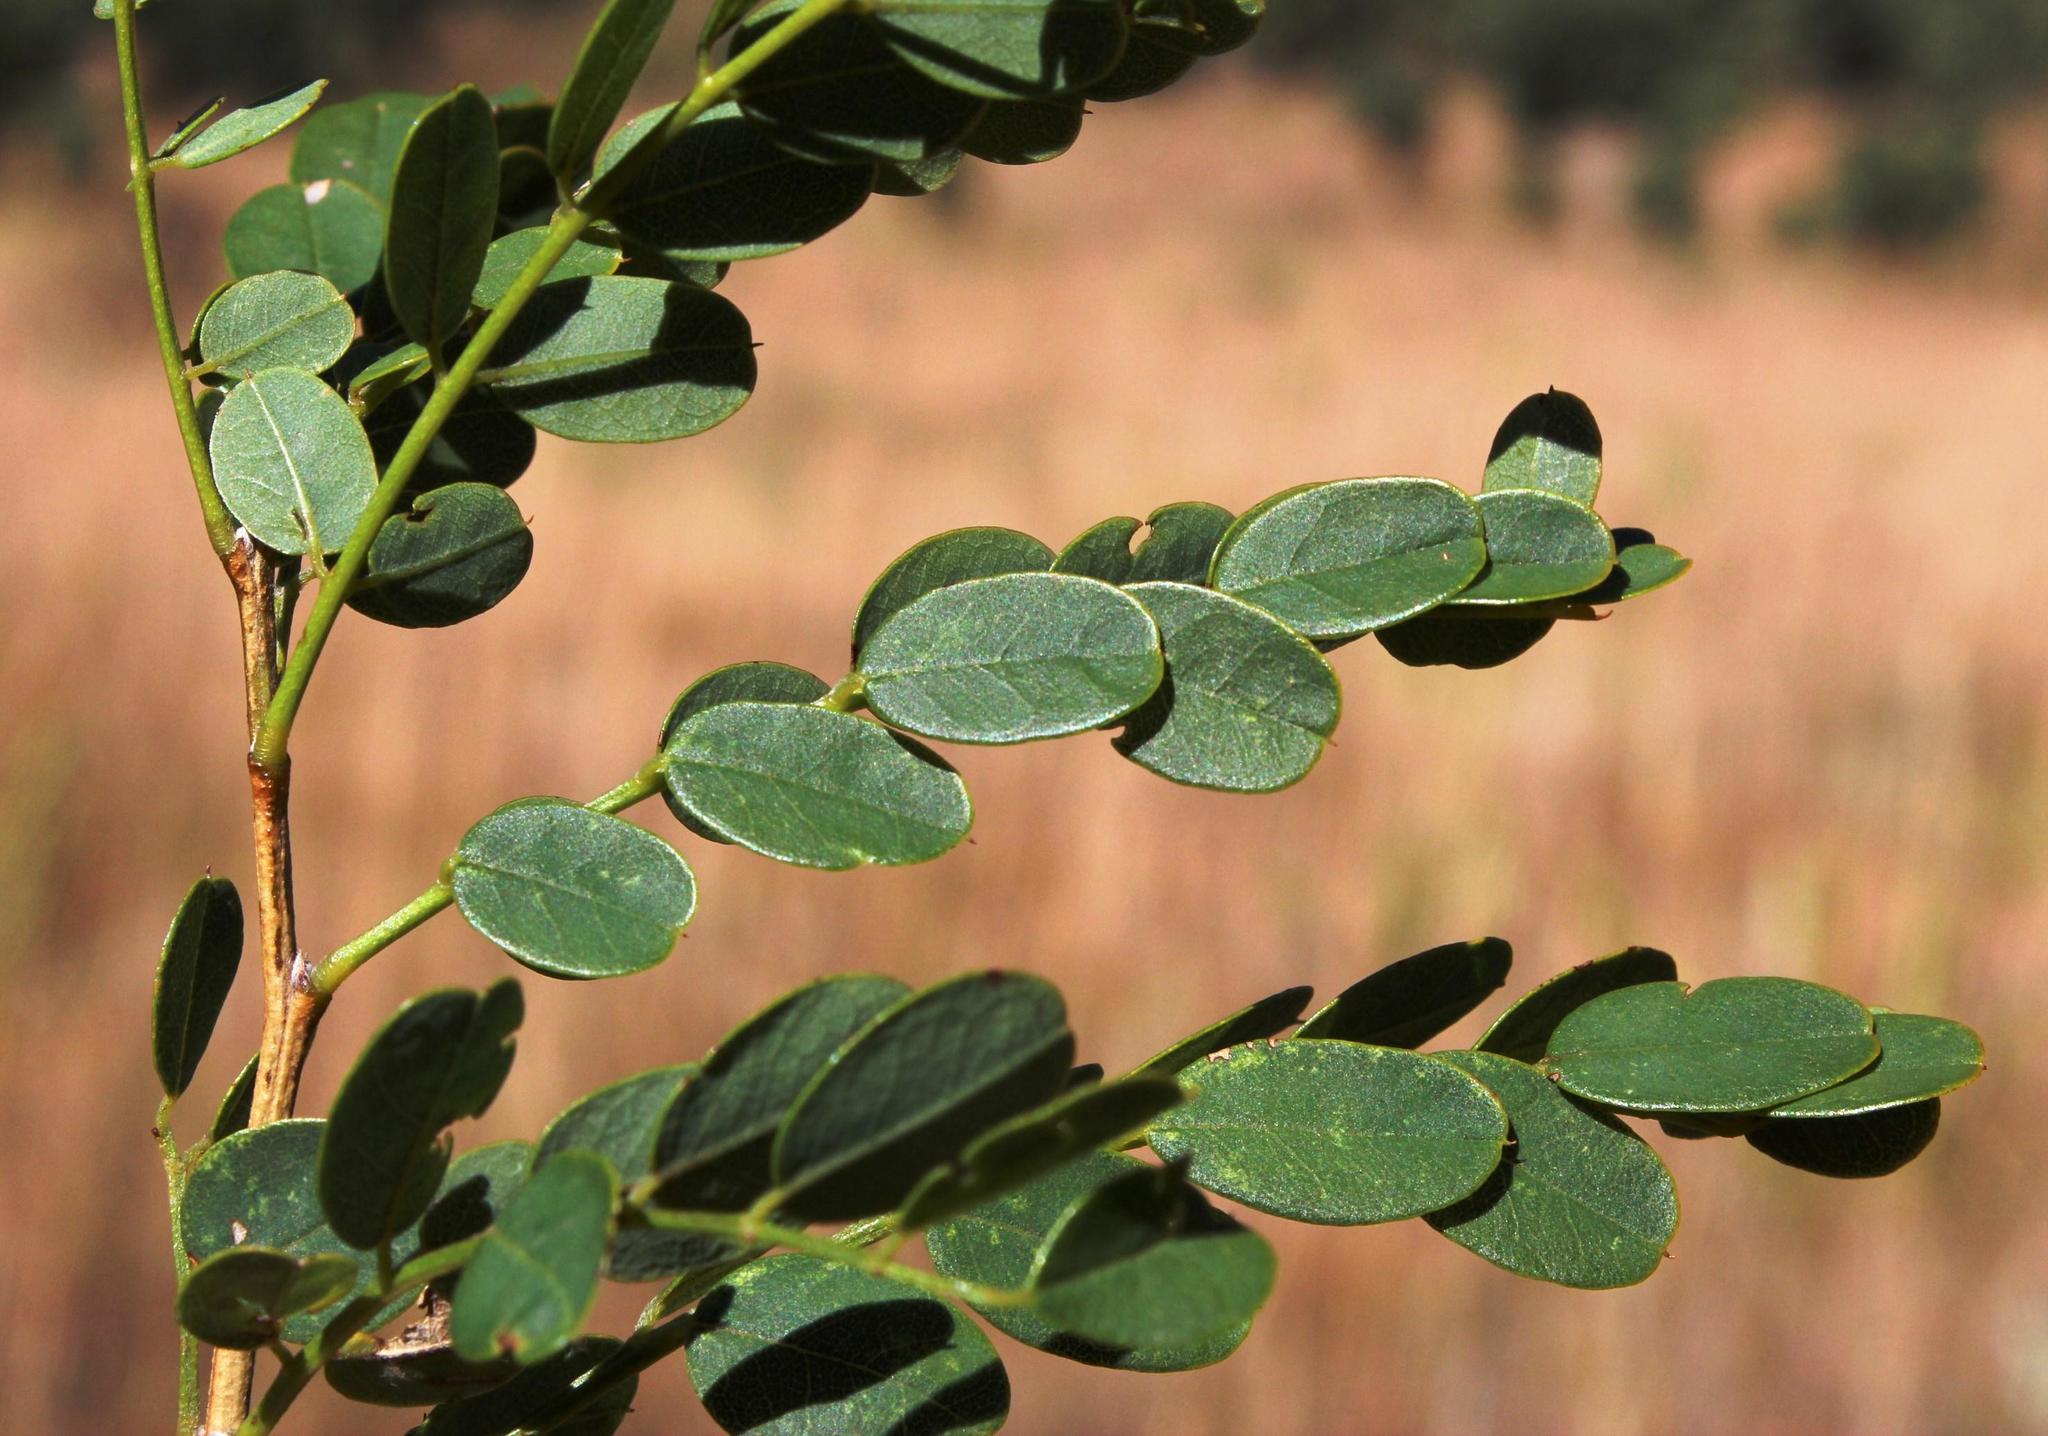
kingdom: Plantae
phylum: Tracheophyta
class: Magnoliopsida
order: Fabales
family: Fabaceae
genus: Calpurnia
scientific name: Calpurnia reflexa
